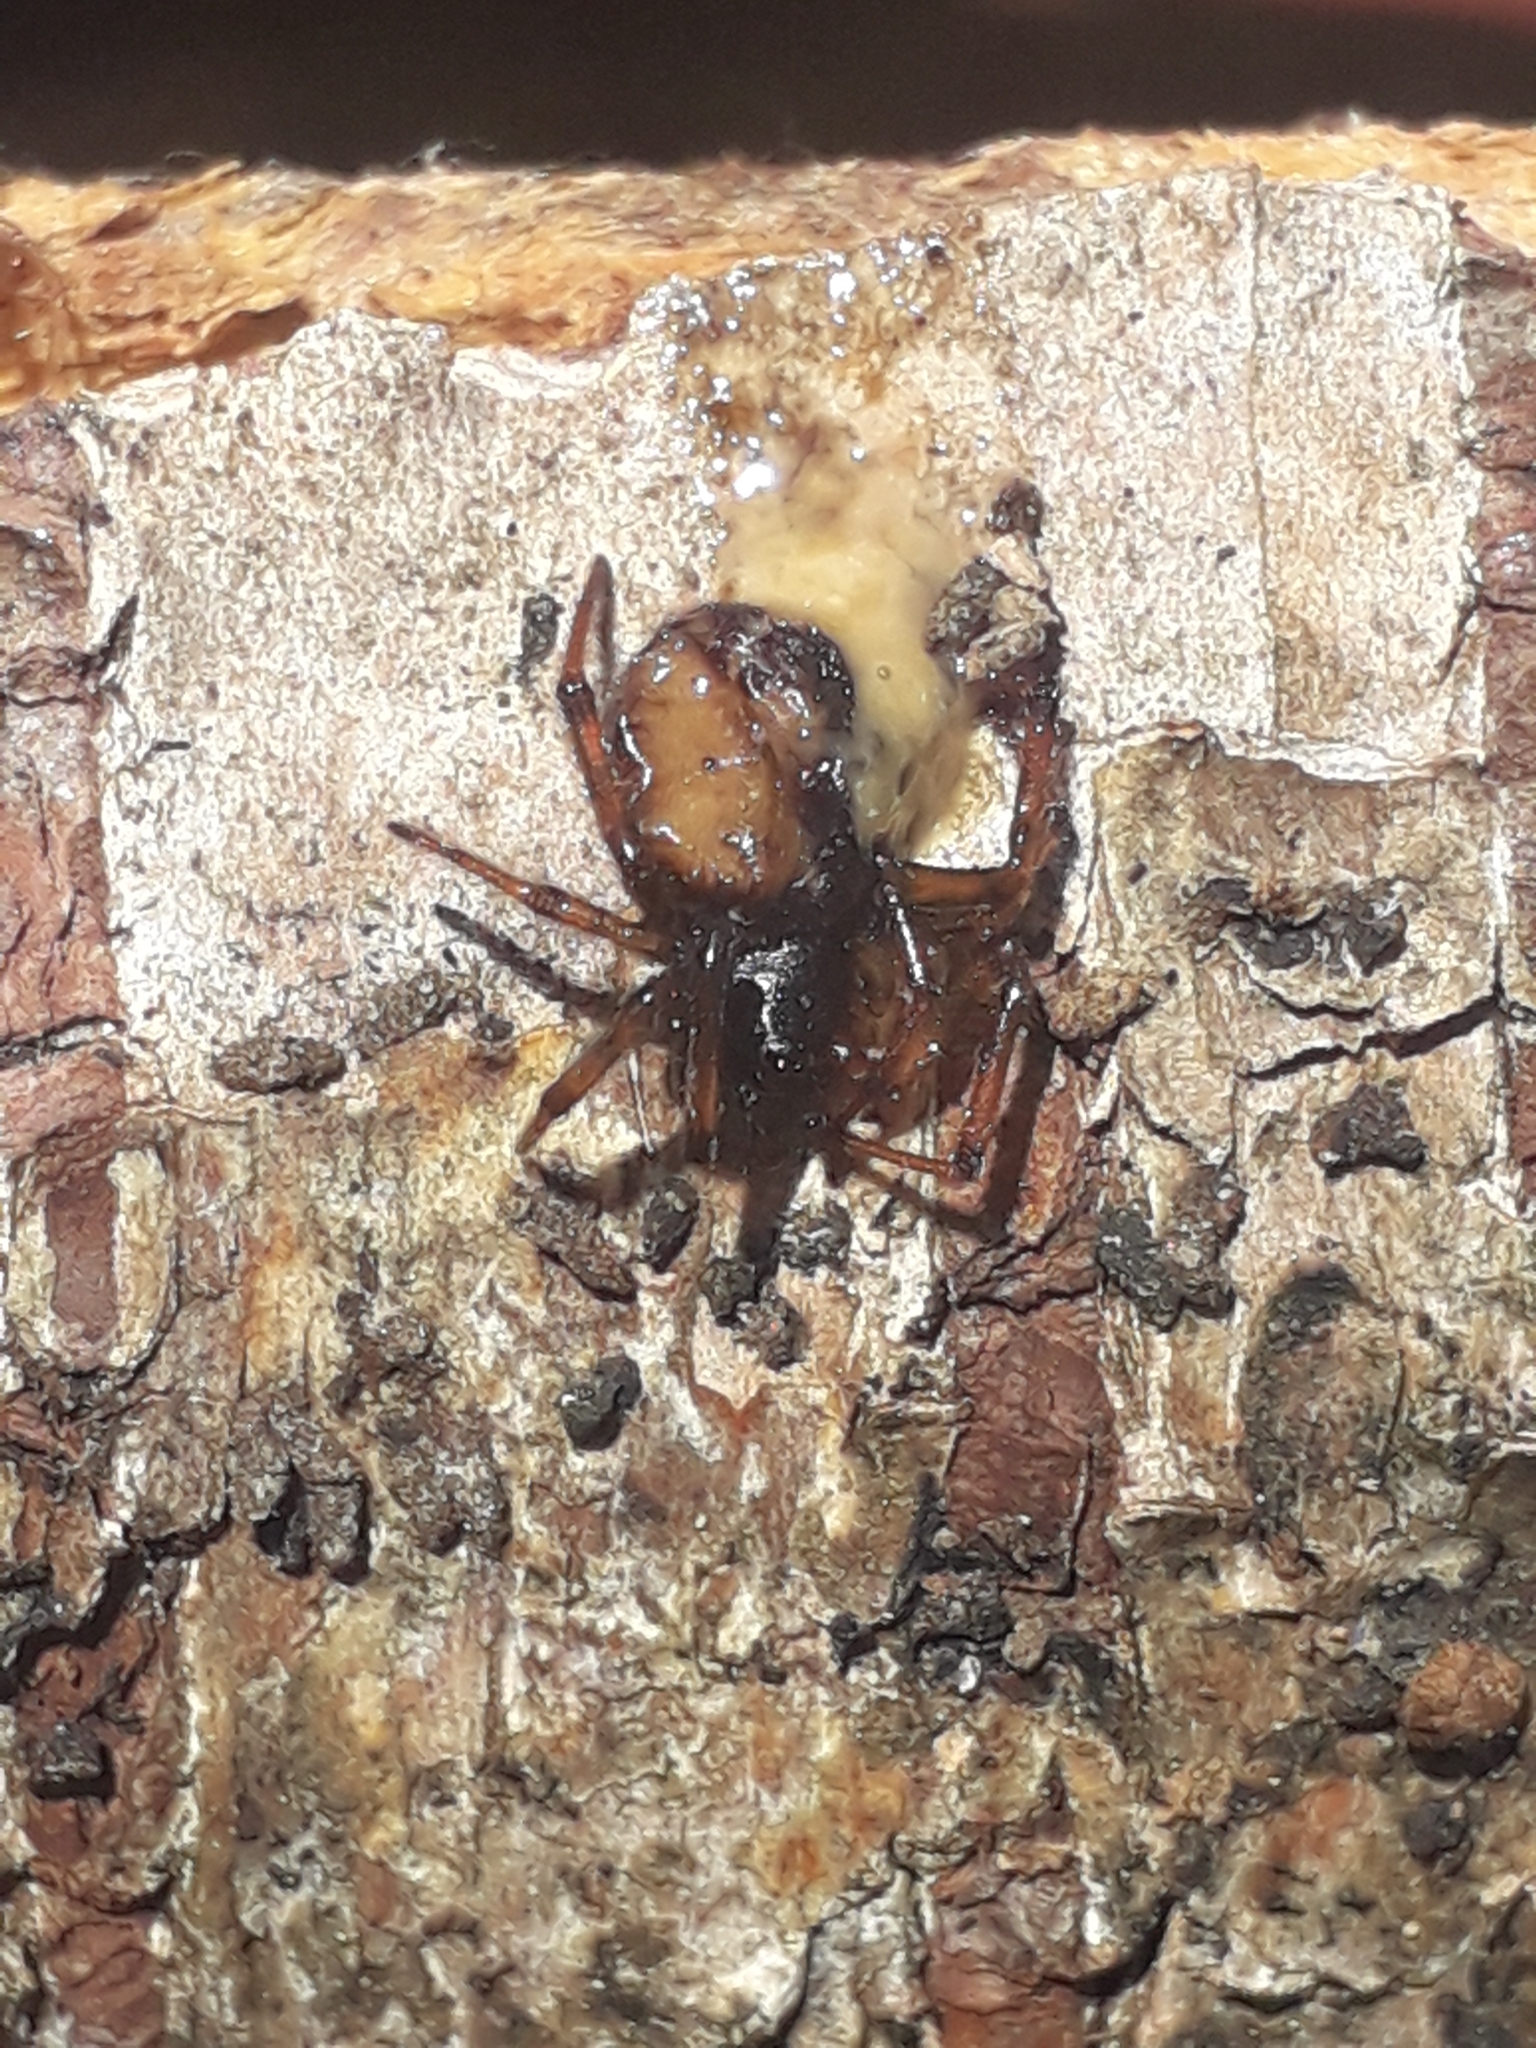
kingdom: Animalia
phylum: Arthropoda
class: Arachnida
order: Araneae
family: Theridiidae
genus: Steatoda
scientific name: Steatoda bipunctata
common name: False widow
